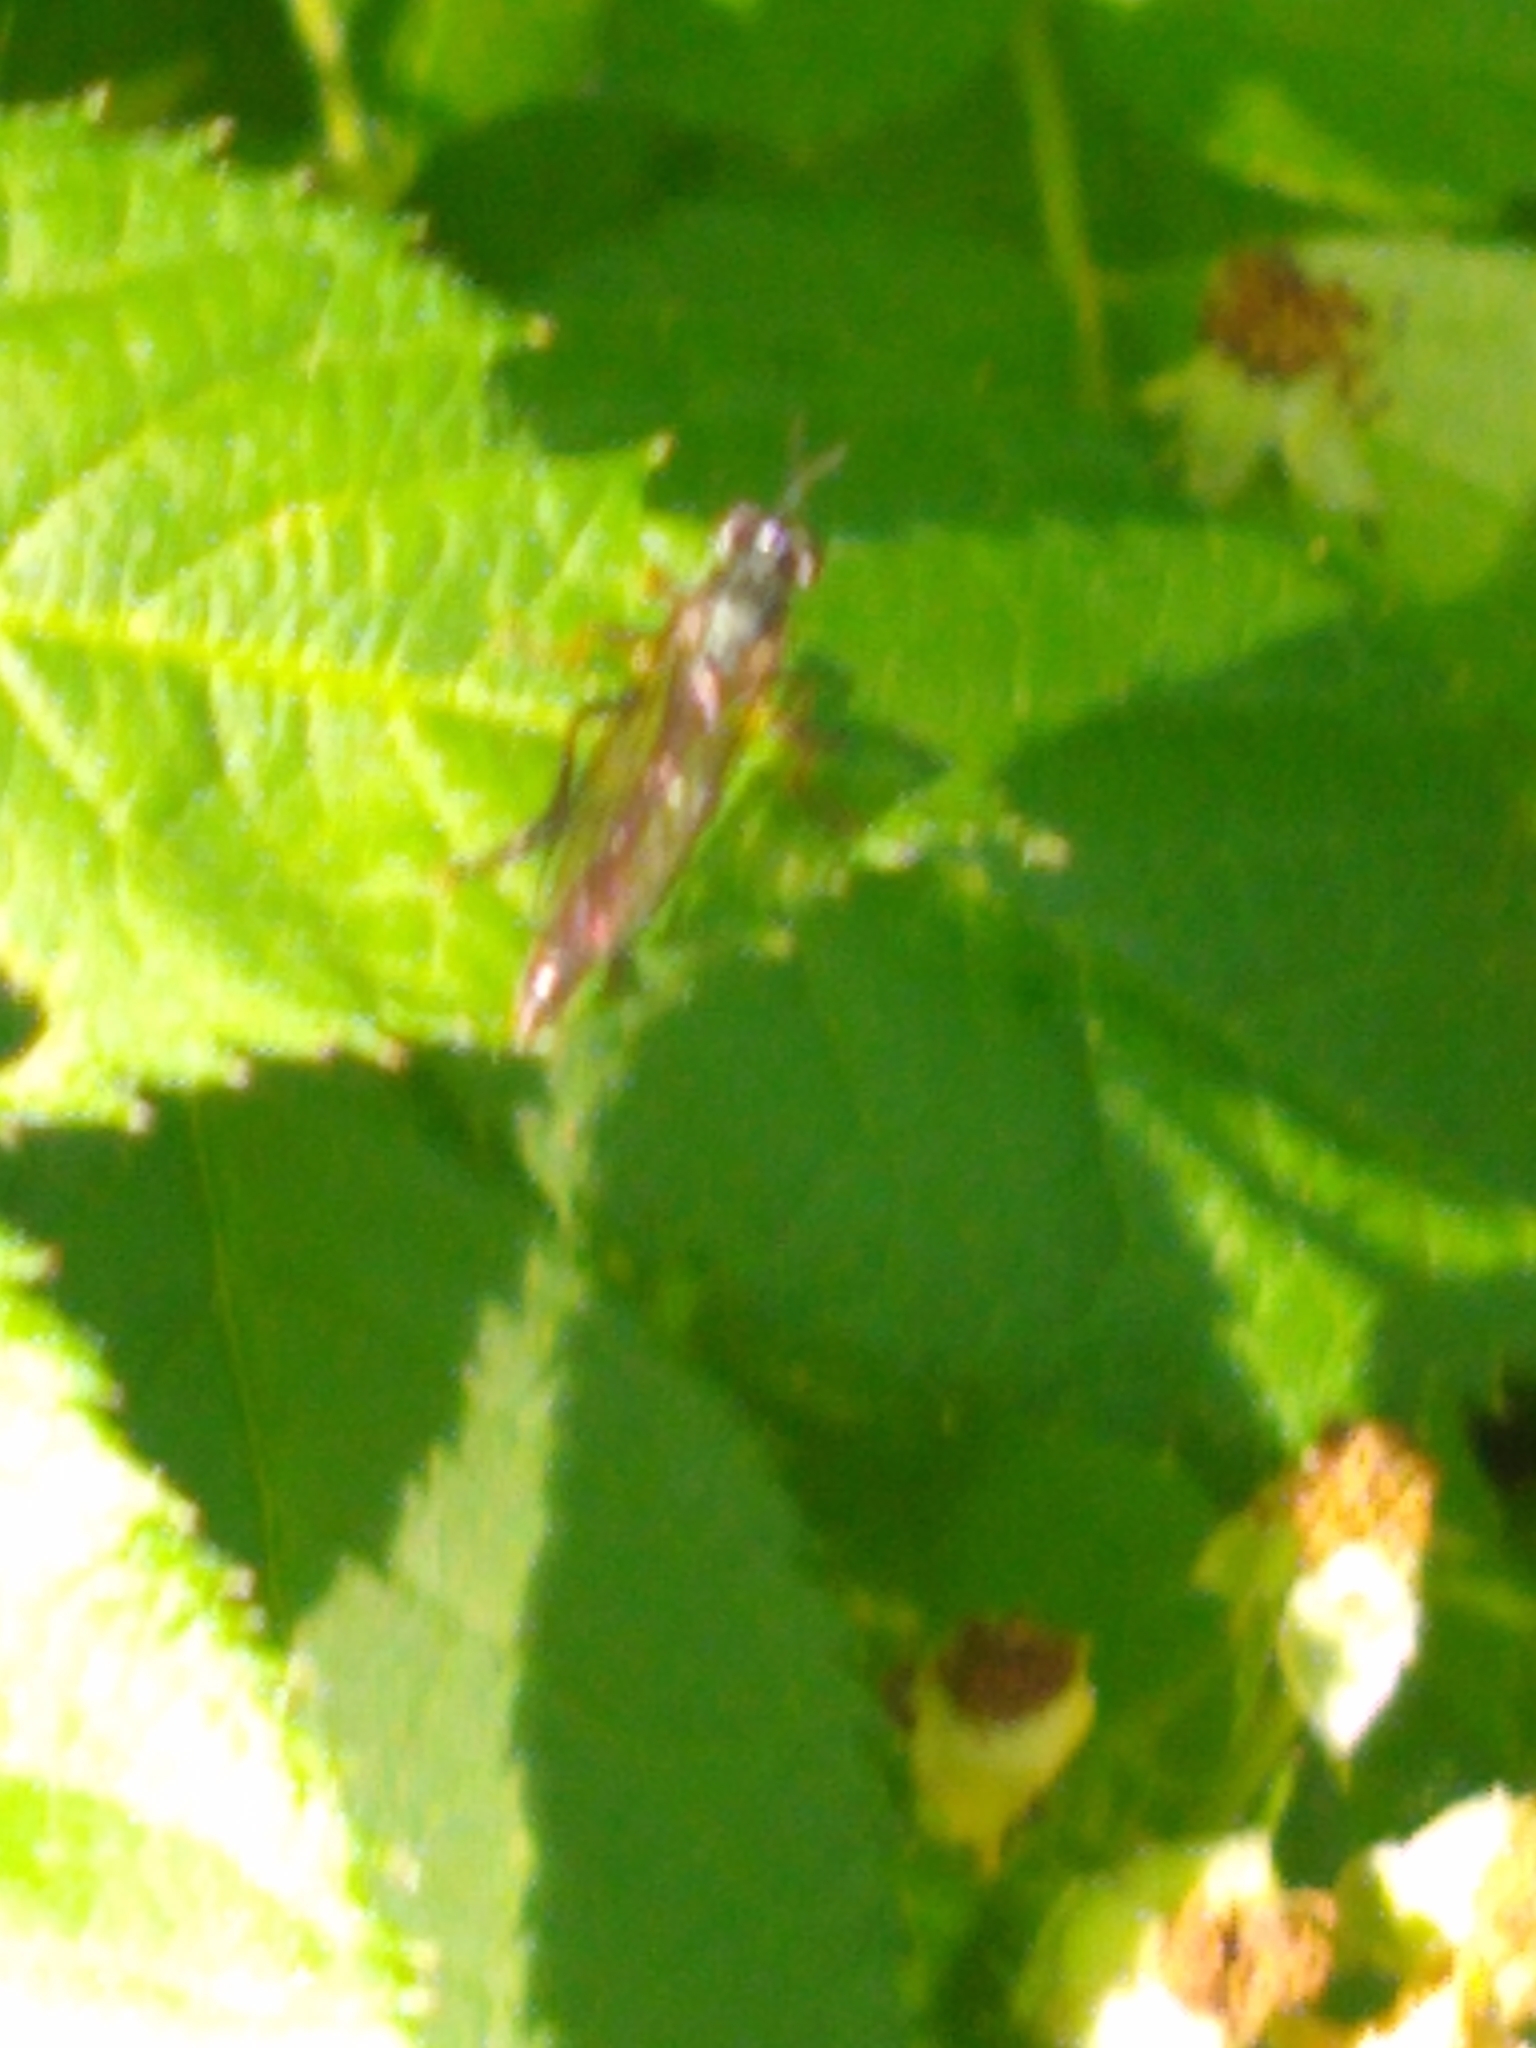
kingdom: Animalia
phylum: Arthropoda
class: Insecta
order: Diptera
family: Asilidae
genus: Dioctria
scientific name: Dioctria hyalipennis
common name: Stripe-legged robberfly
